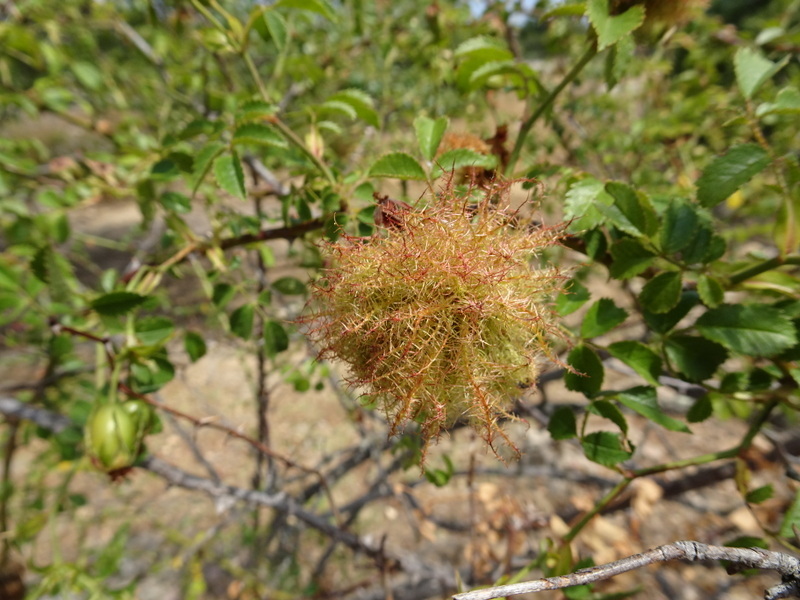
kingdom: Animalia
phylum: Arthropoda
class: Insecta
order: Hymenoptera
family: Cynipidae
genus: Diplolepis
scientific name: Diplolepis rosae
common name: Bedeguar gall
